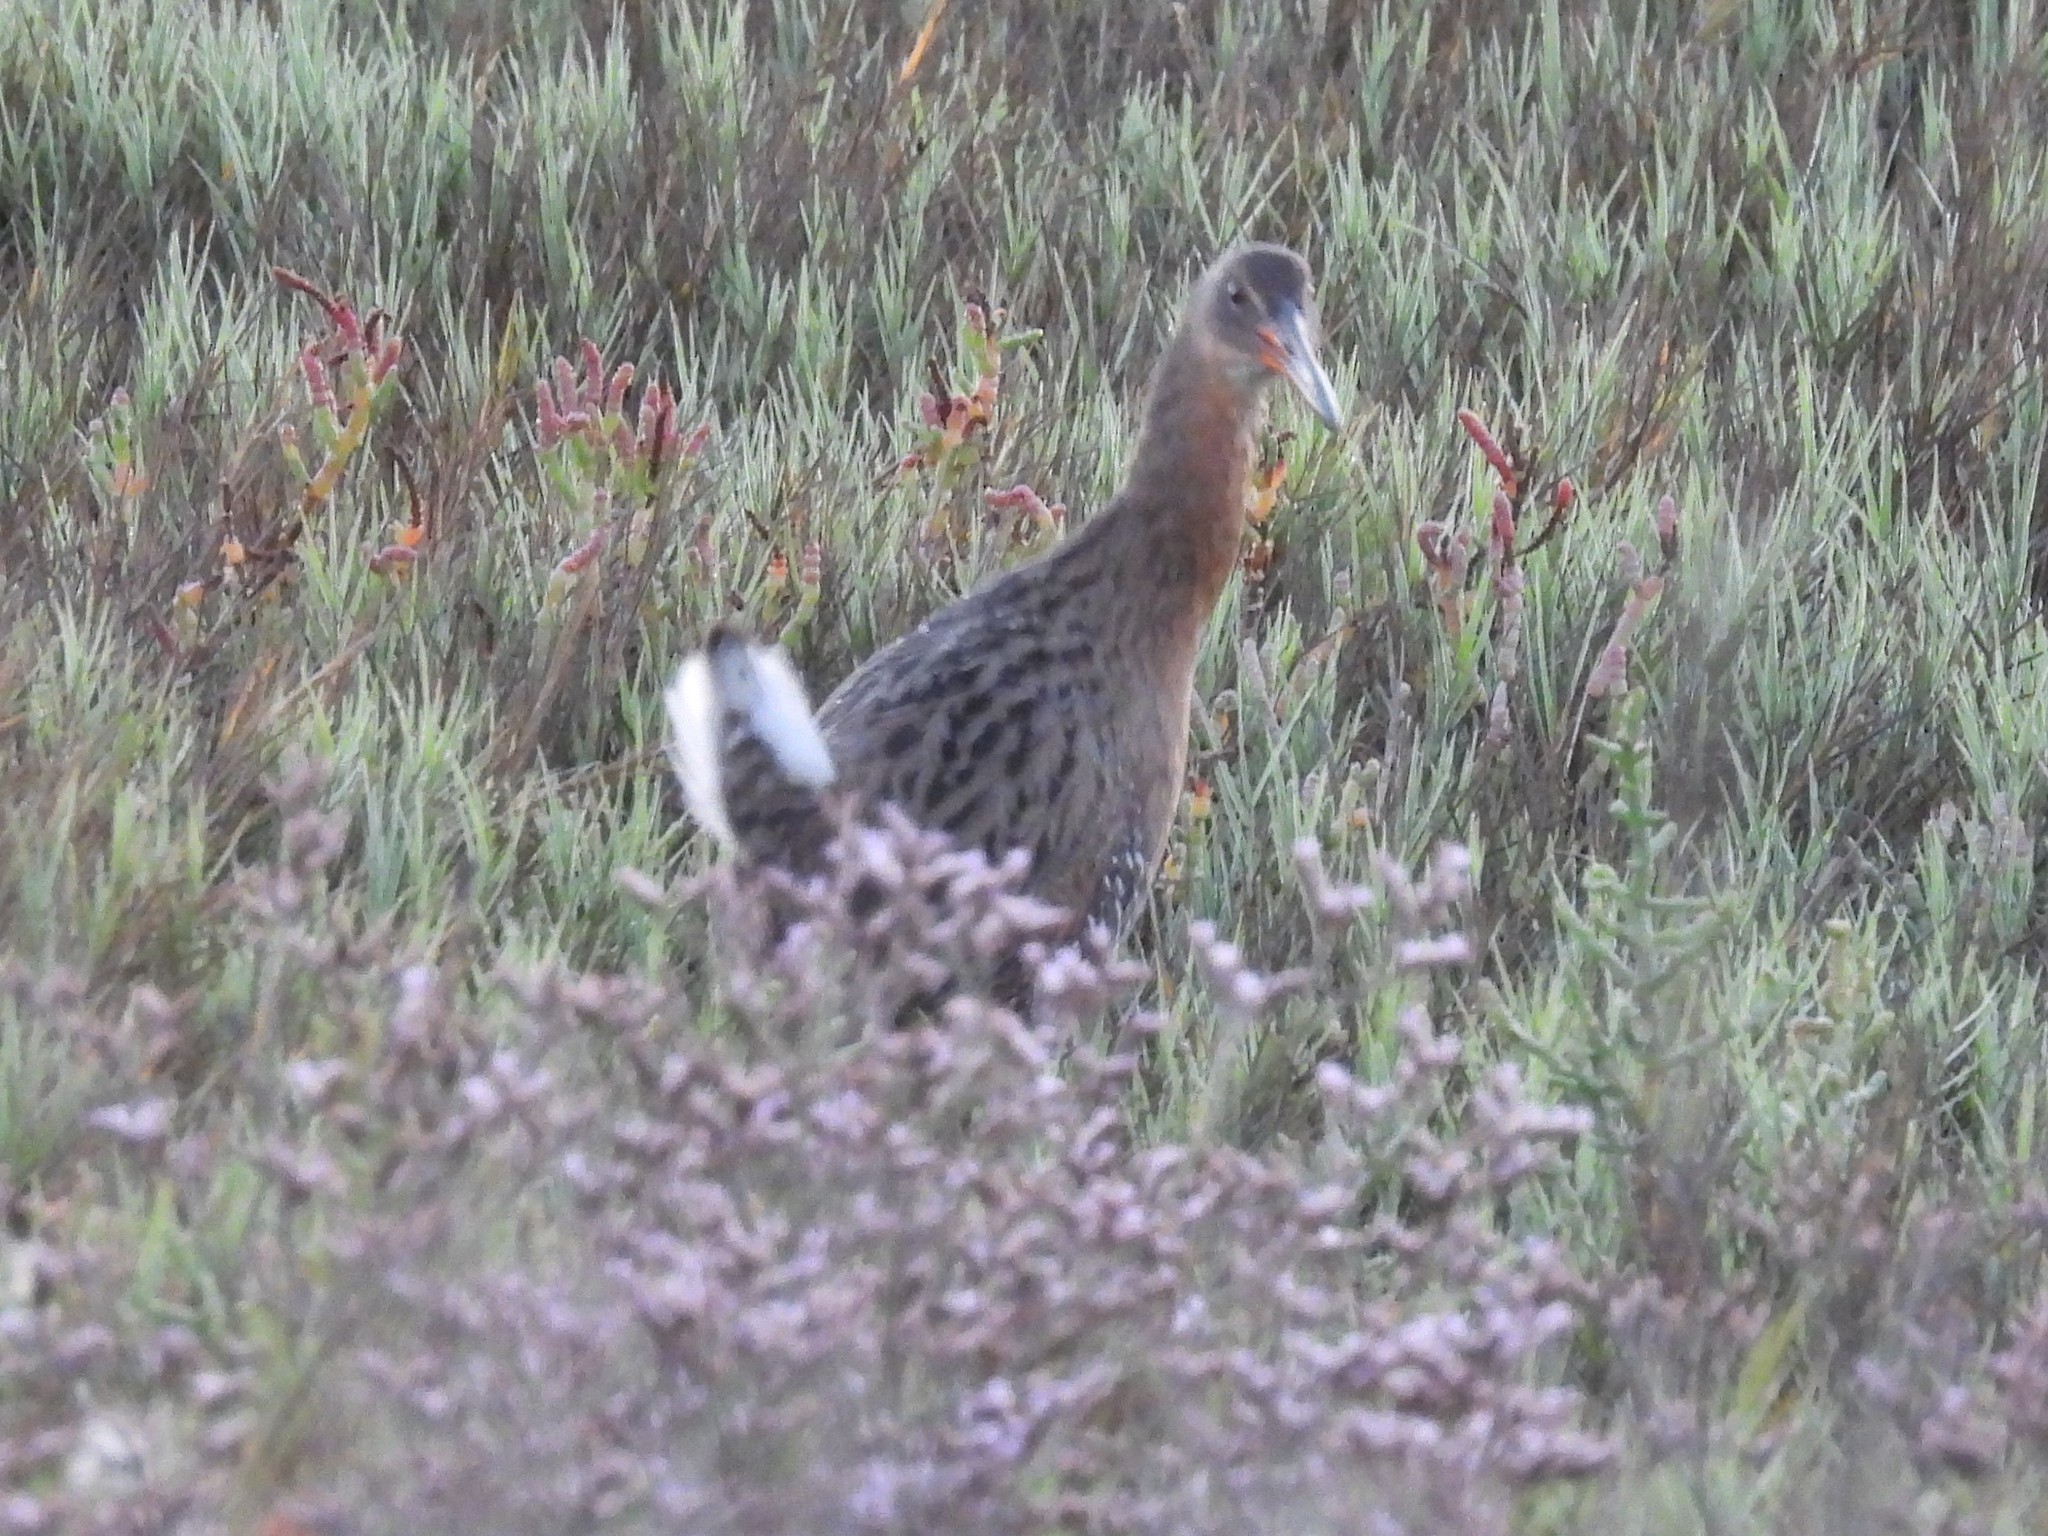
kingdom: Animalia
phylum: Chordata
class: Aves
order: Gruiformes
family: Rallidae
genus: Rallus
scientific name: Rallus obsoletus
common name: Ridgway's rail
